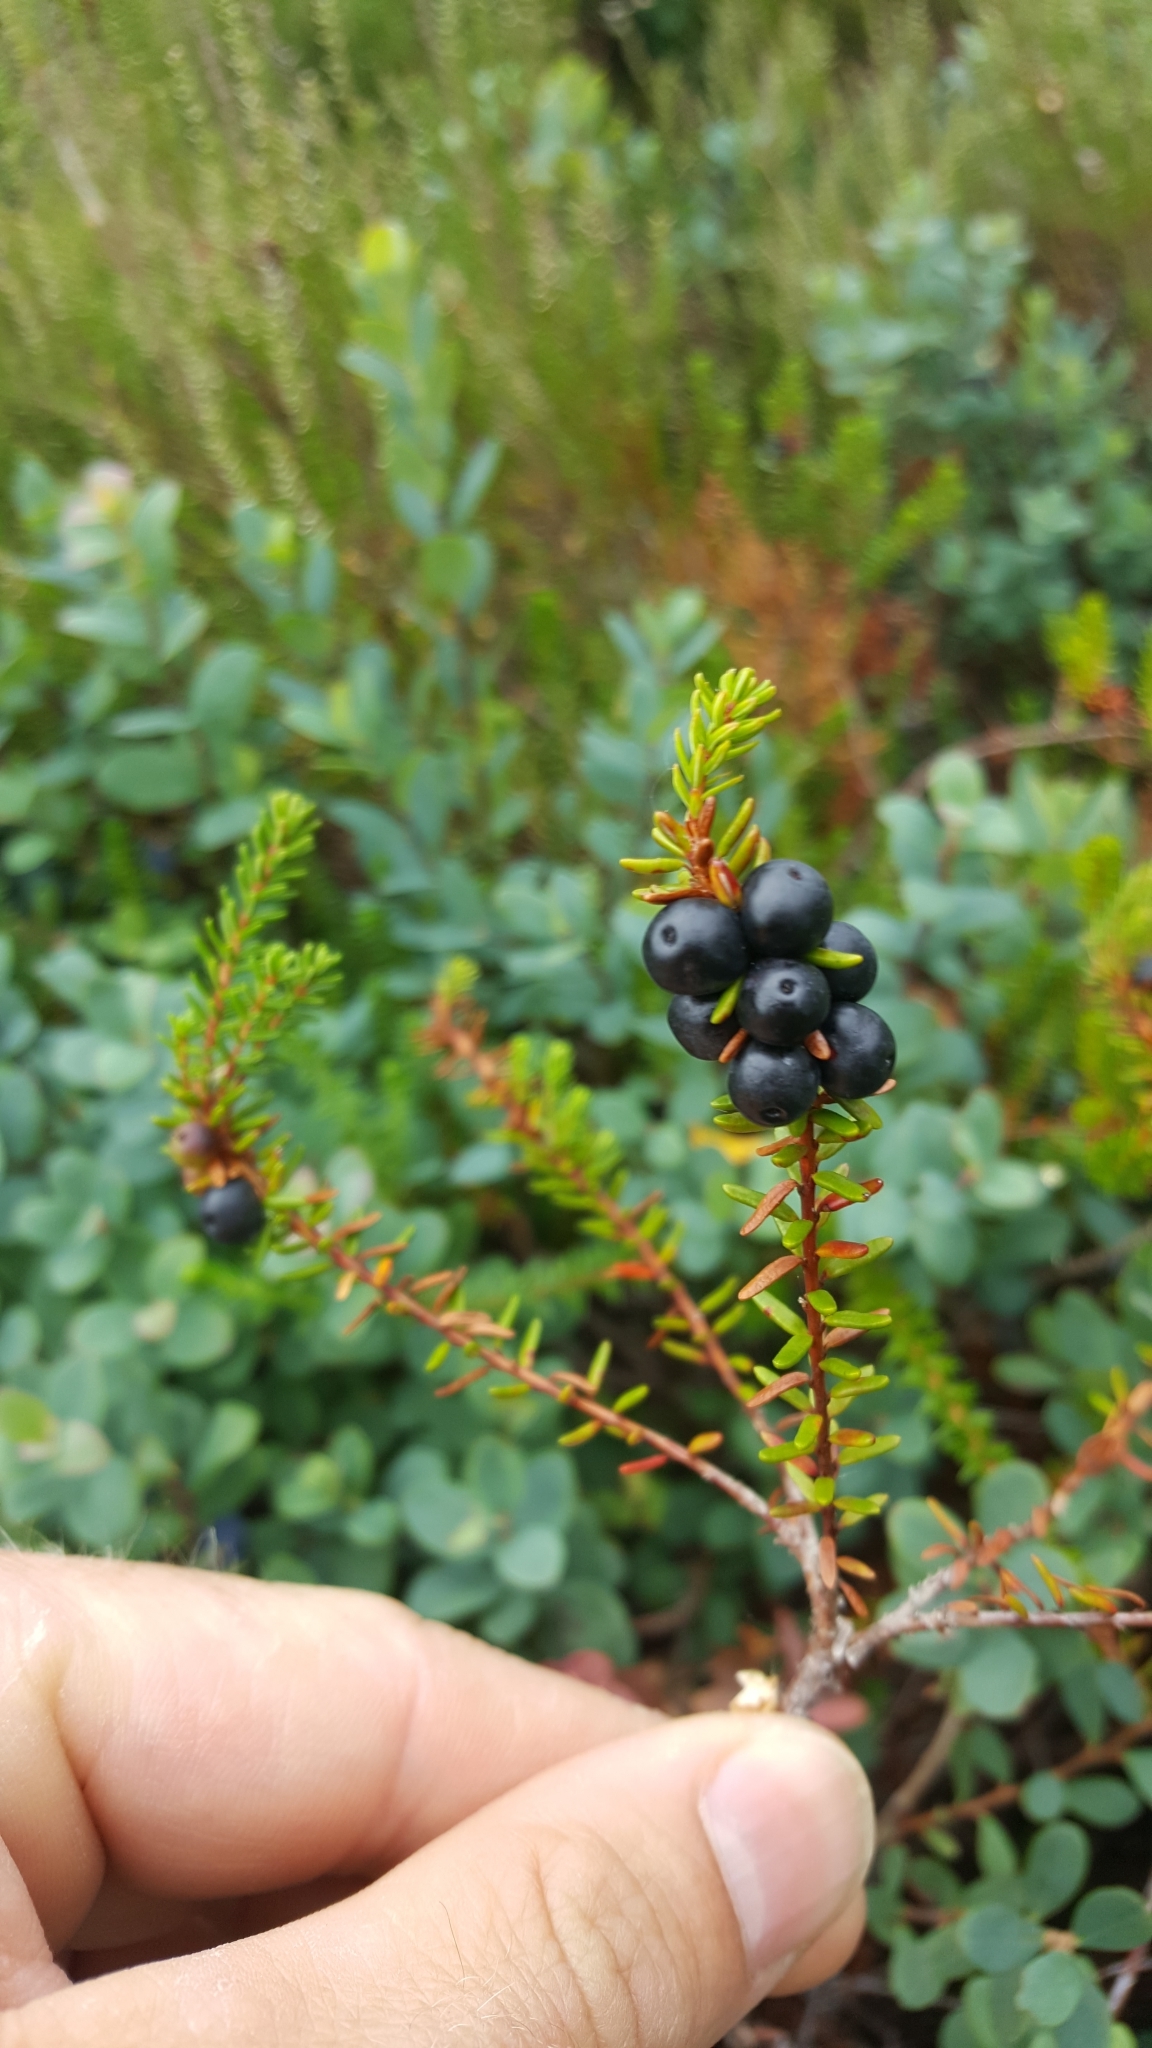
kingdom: Plantae
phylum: Tracheophyta
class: Magnoliopsida
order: Ericales
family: Ericaceae
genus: Empetrum
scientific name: Empetrum nigrum
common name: Black crowberry
